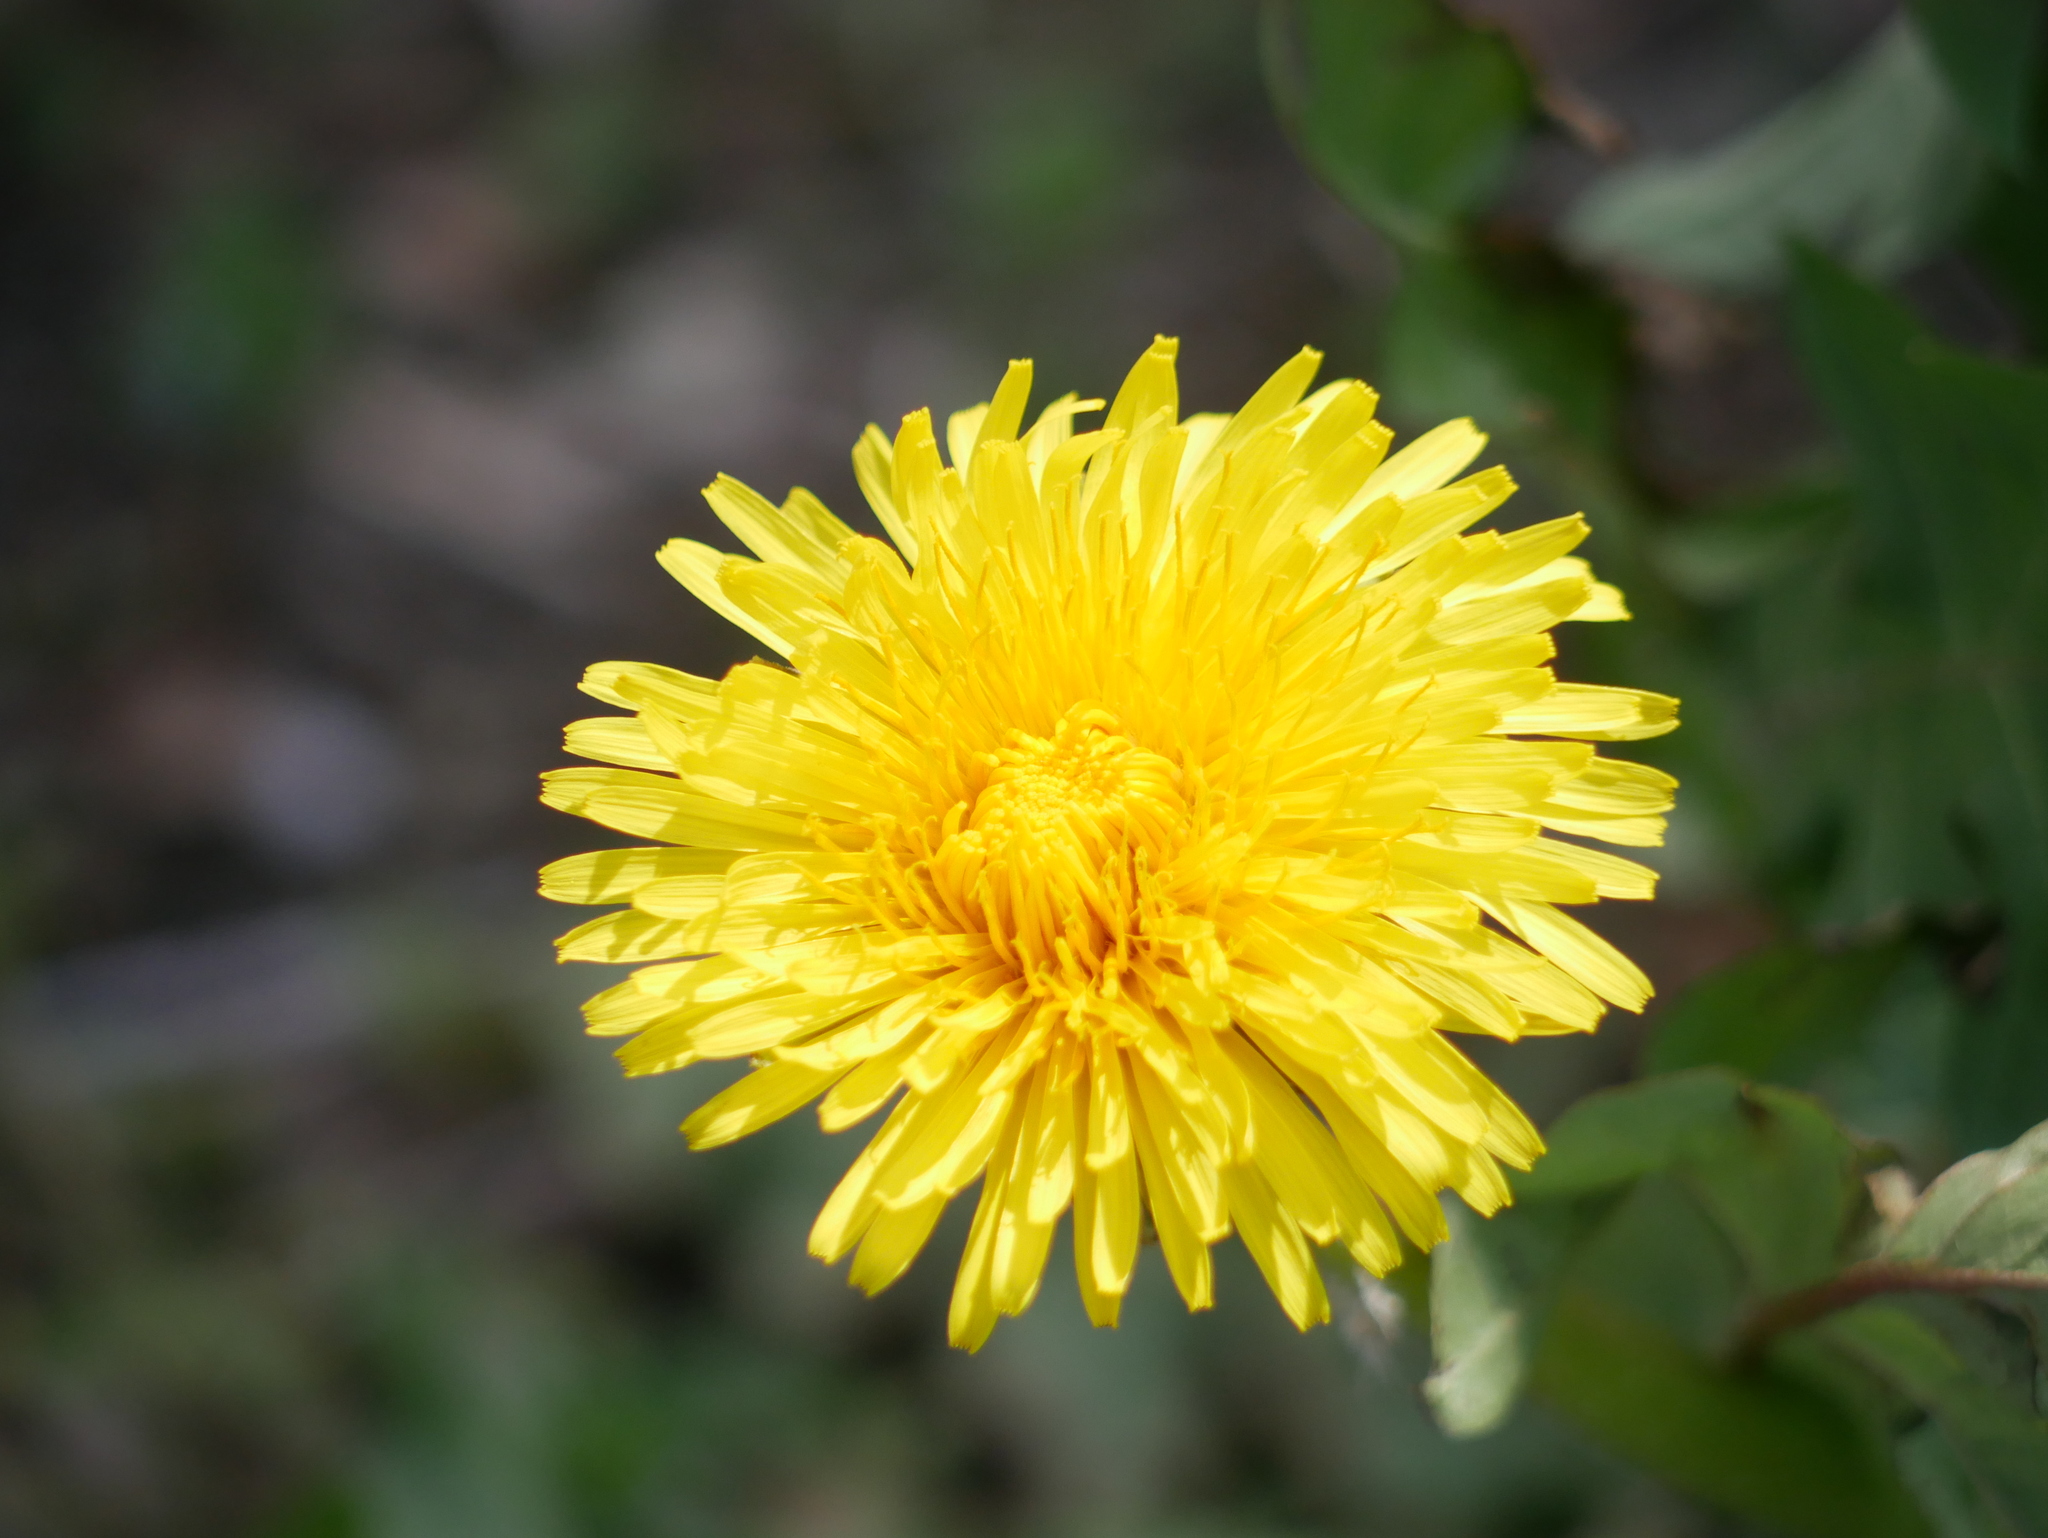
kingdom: Plantae
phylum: Tracheophyta
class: Magnoliopsida
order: Asterales
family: Asteraceae
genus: Taraxacum
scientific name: Taraxacum officinale
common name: Common dandelion
